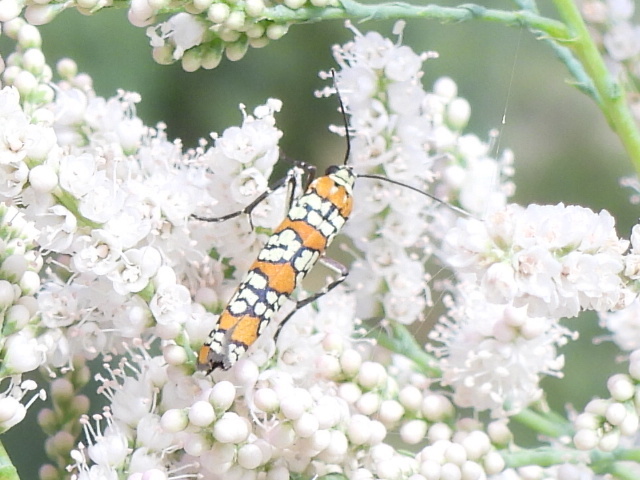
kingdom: Animalia
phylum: Arthropoda
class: Insecta
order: Lepidoptera
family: Attevidae
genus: Atteva
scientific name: Atteva punctella
